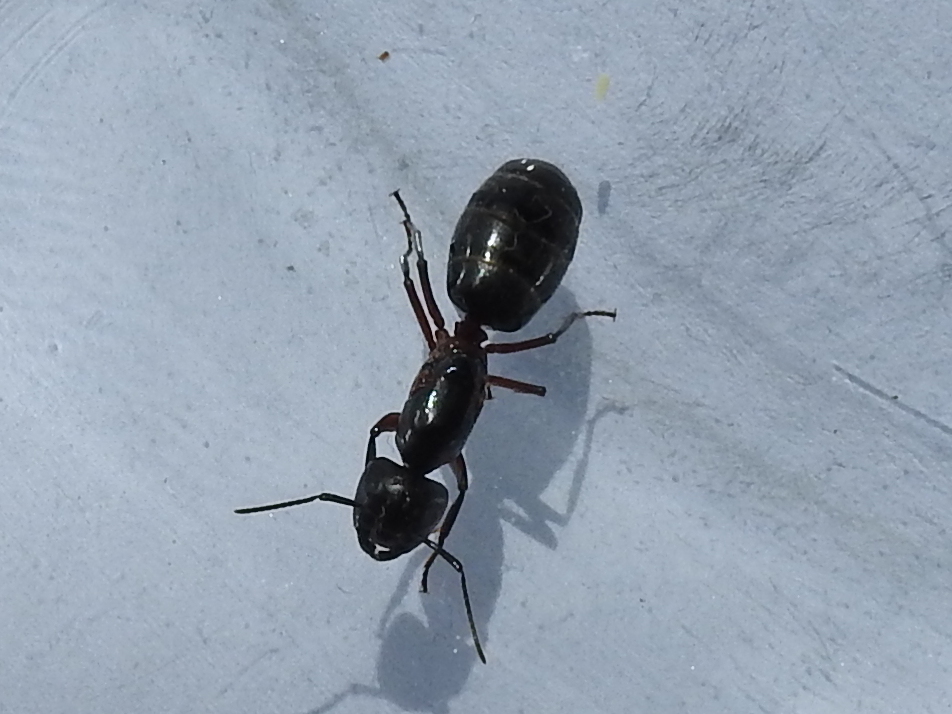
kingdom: Animalia
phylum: Arthropoda
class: Insecta
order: Hymenoptera
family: Formicidae
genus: Camponotus
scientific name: Camponotus herculeanus
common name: Hercules ant
